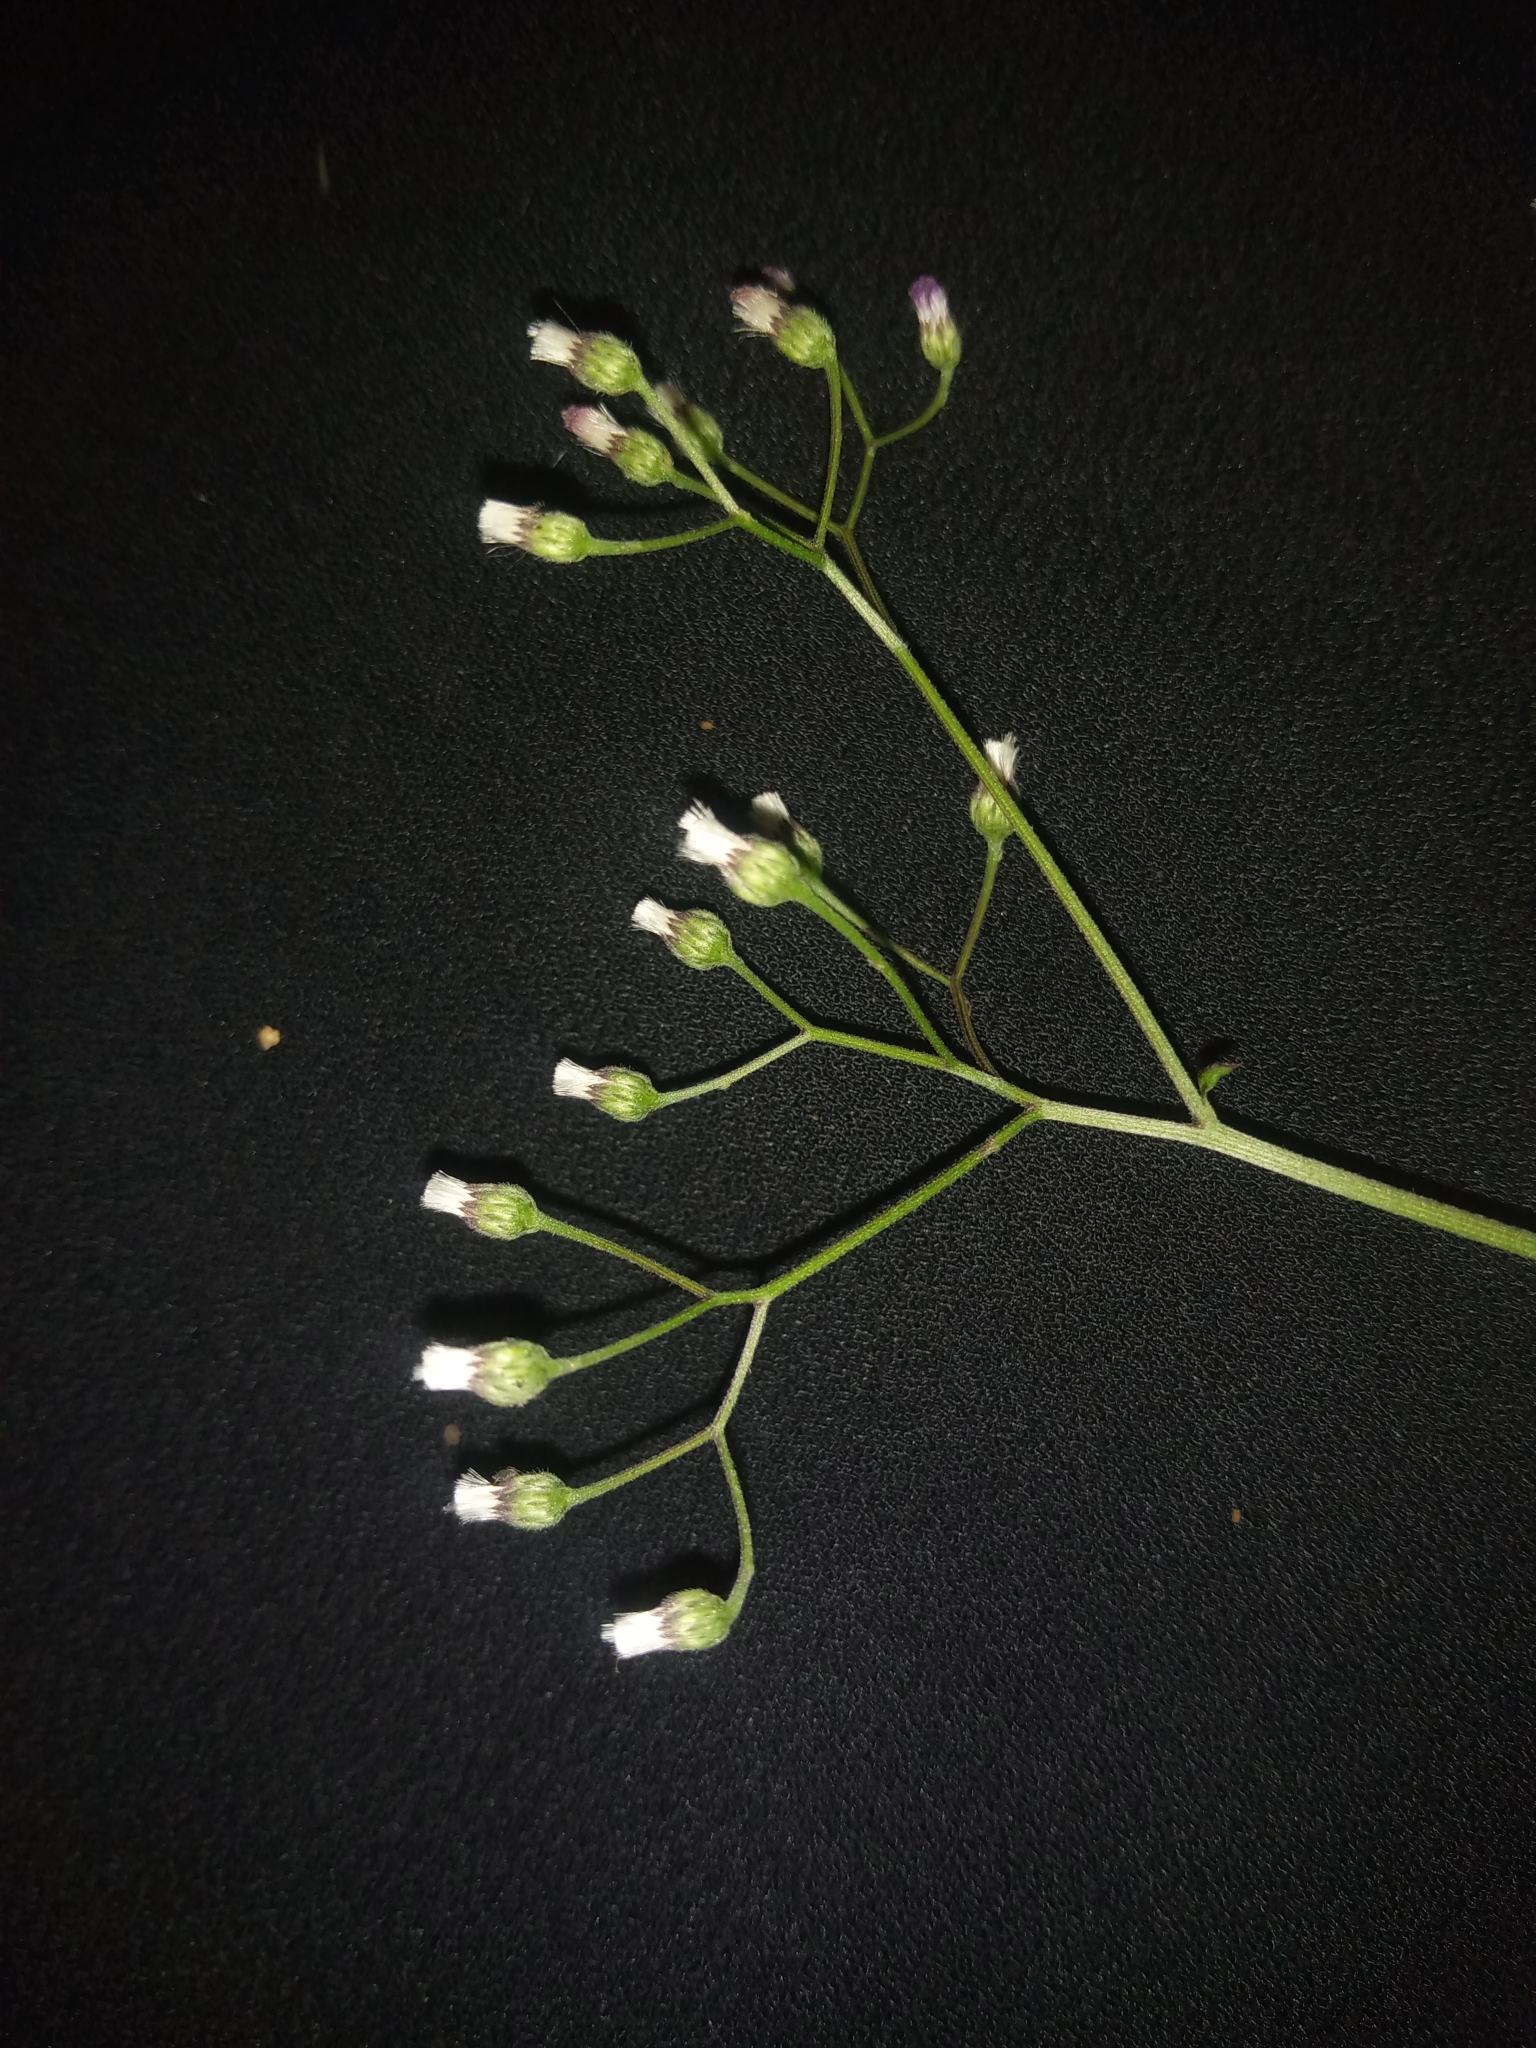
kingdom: Plantae
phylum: Tracheophyta
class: Magnoliopsida
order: Asterales
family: Asteraceae
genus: Cyanthillium
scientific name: Cyanthillium cinereum
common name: Little ironweed
